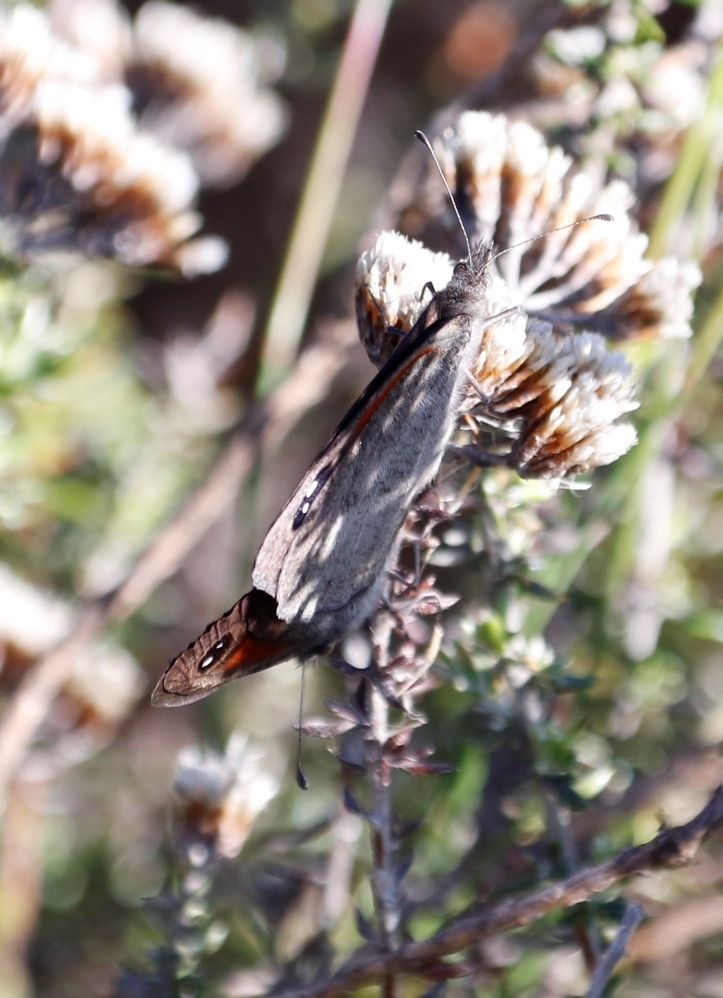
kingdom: Animalia
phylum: Arthropoda
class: Insecta
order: Lepidoptera
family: Nymphalidae
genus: Stygionympha
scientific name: Stygionympha vigilans
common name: Western hillside brown
